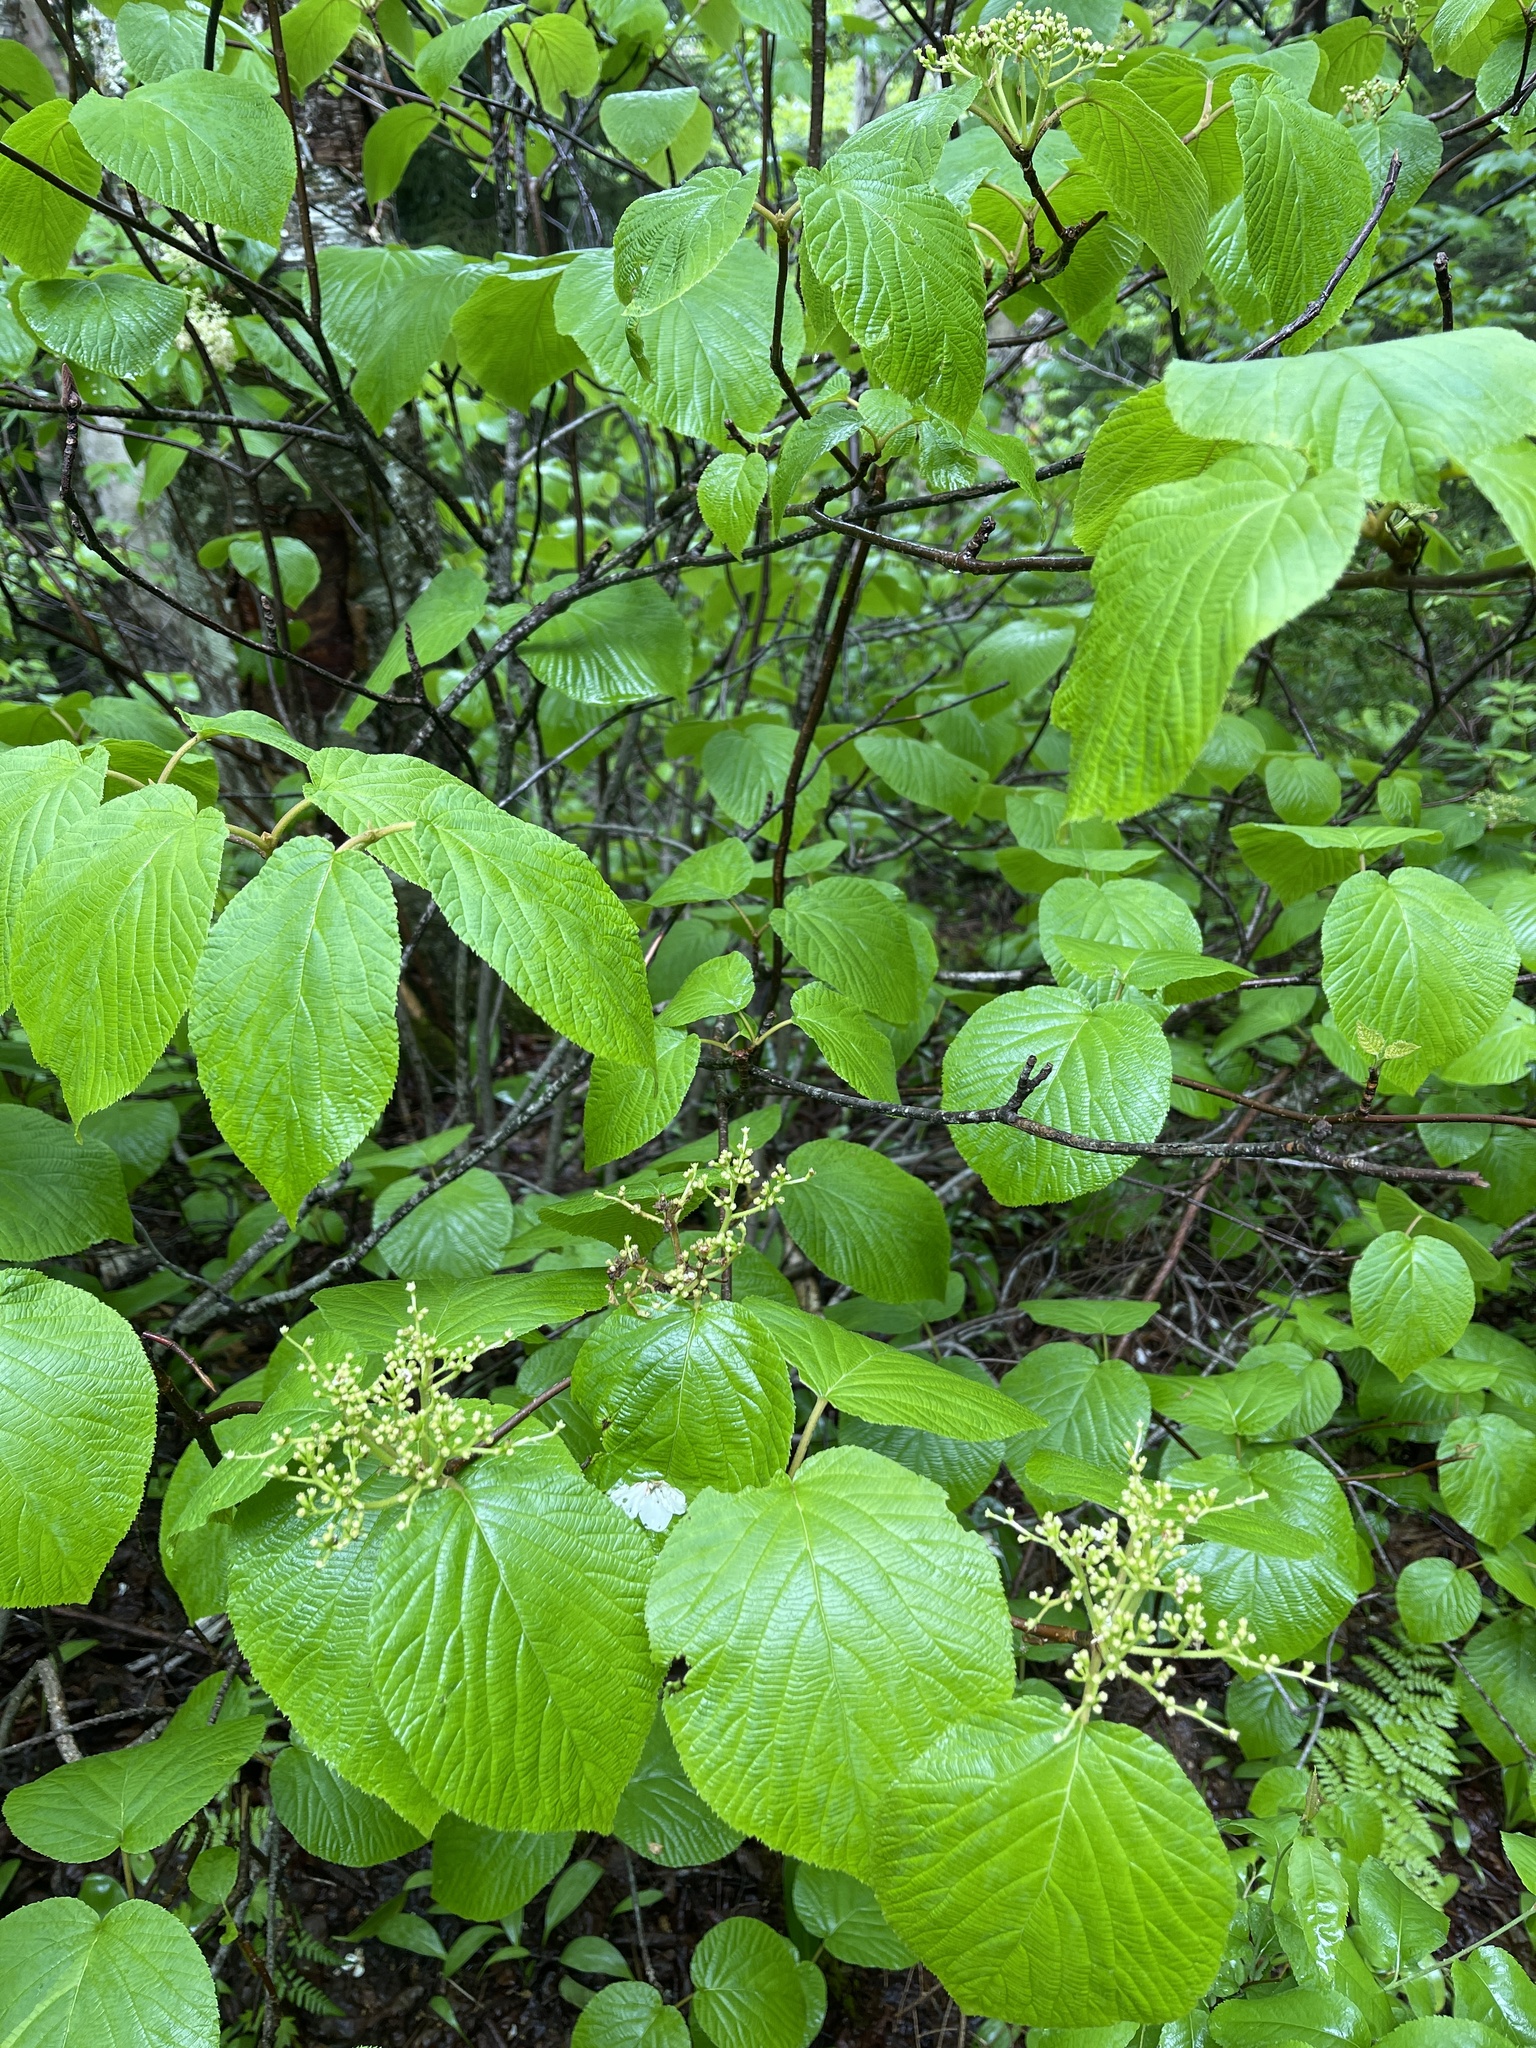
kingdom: Plantae
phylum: Tracheophyta
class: Magnoliopsida
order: Dipsacales
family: Viburnaceae
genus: Viburnum
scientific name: Viburnum lantanoides
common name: Hobblebush
